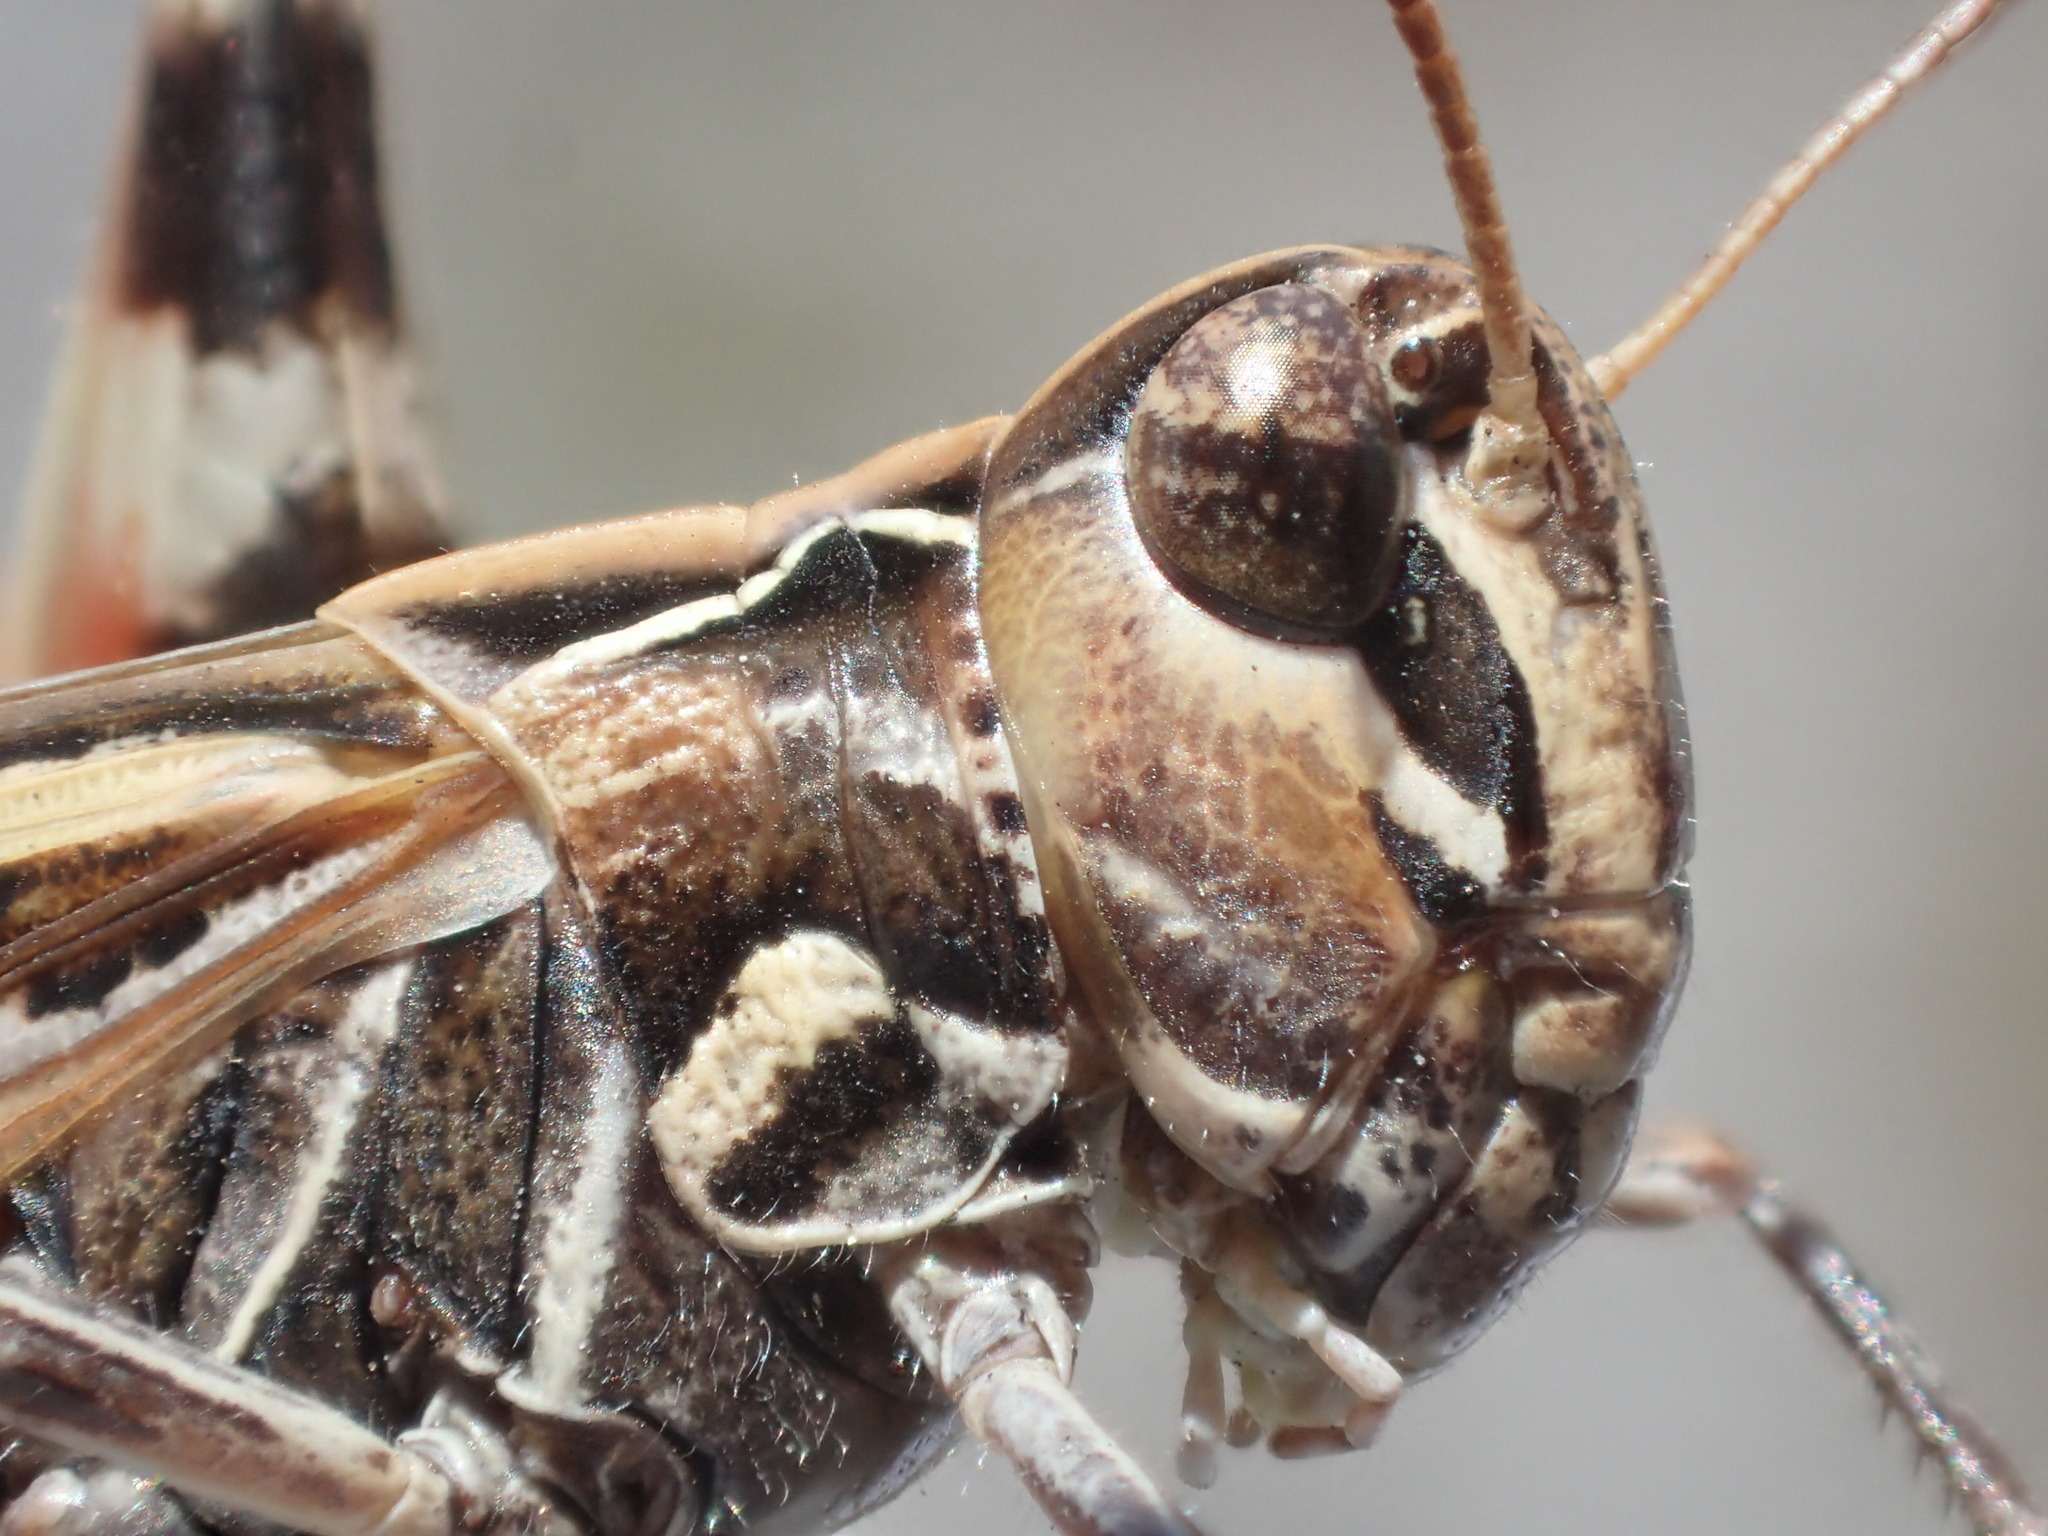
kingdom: Animalia
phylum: Arthropoda
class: Insecta
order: Orthoptera
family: Acrididae
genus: Austroicetes
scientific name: Austroicetes vulgaris
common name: Southeastern austroicetes
